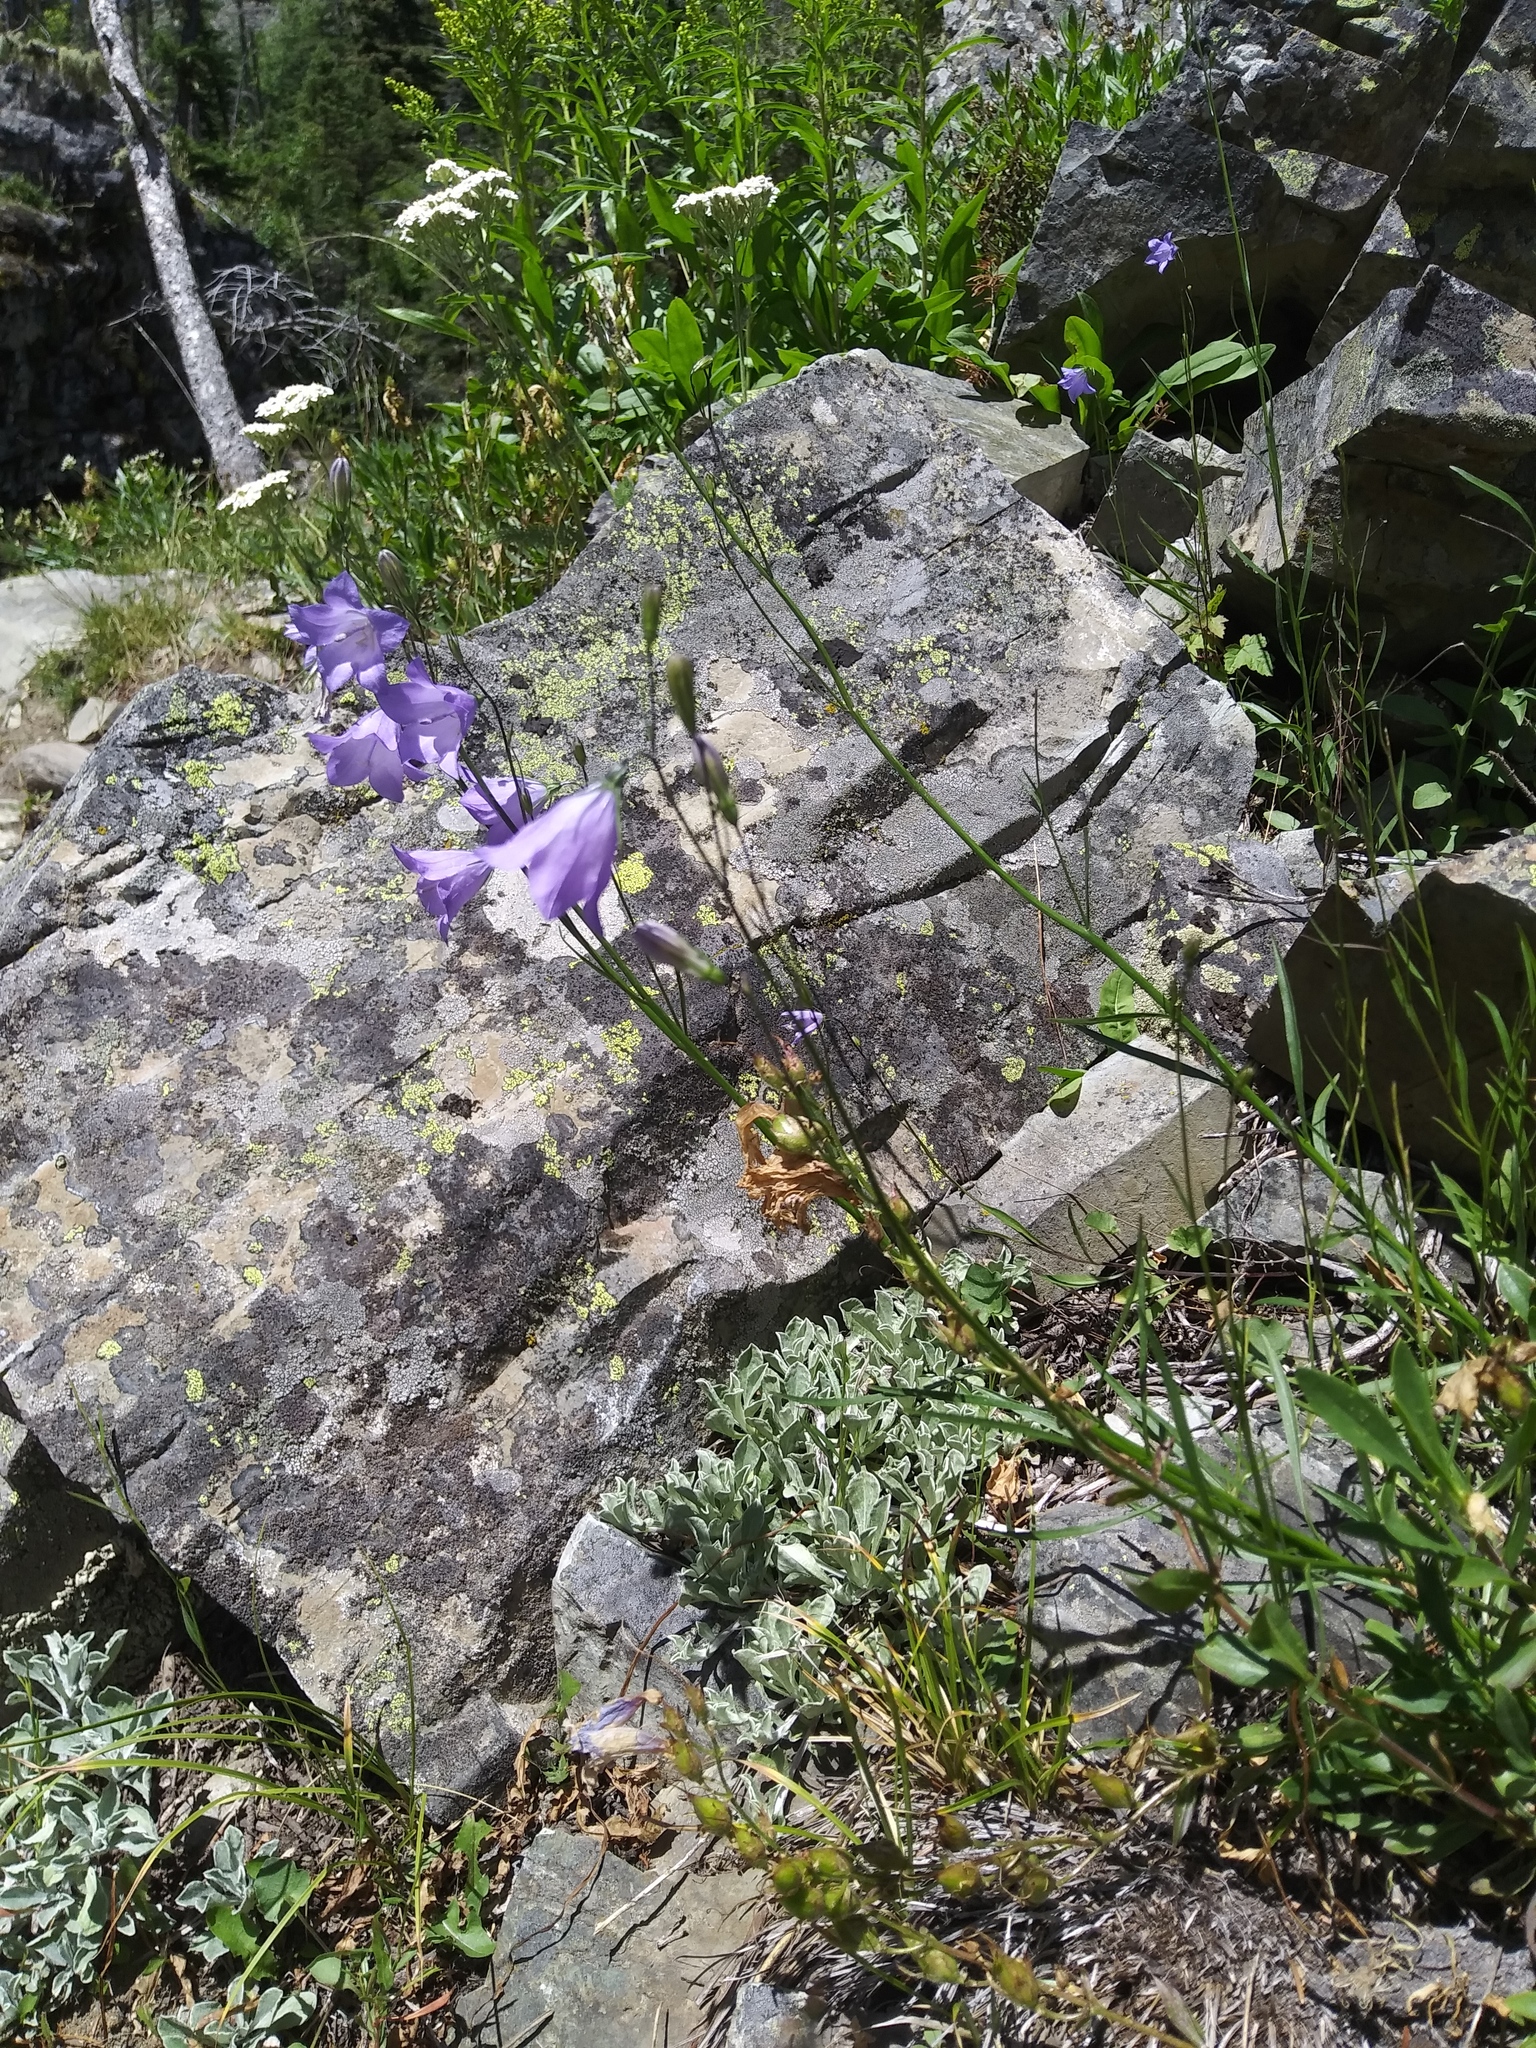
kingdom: Plantae
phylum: Tracheophyta
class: Magnoliopsida
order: Asterales
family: Campanulaceae
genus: Campanula
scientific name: Campanula petiolata
